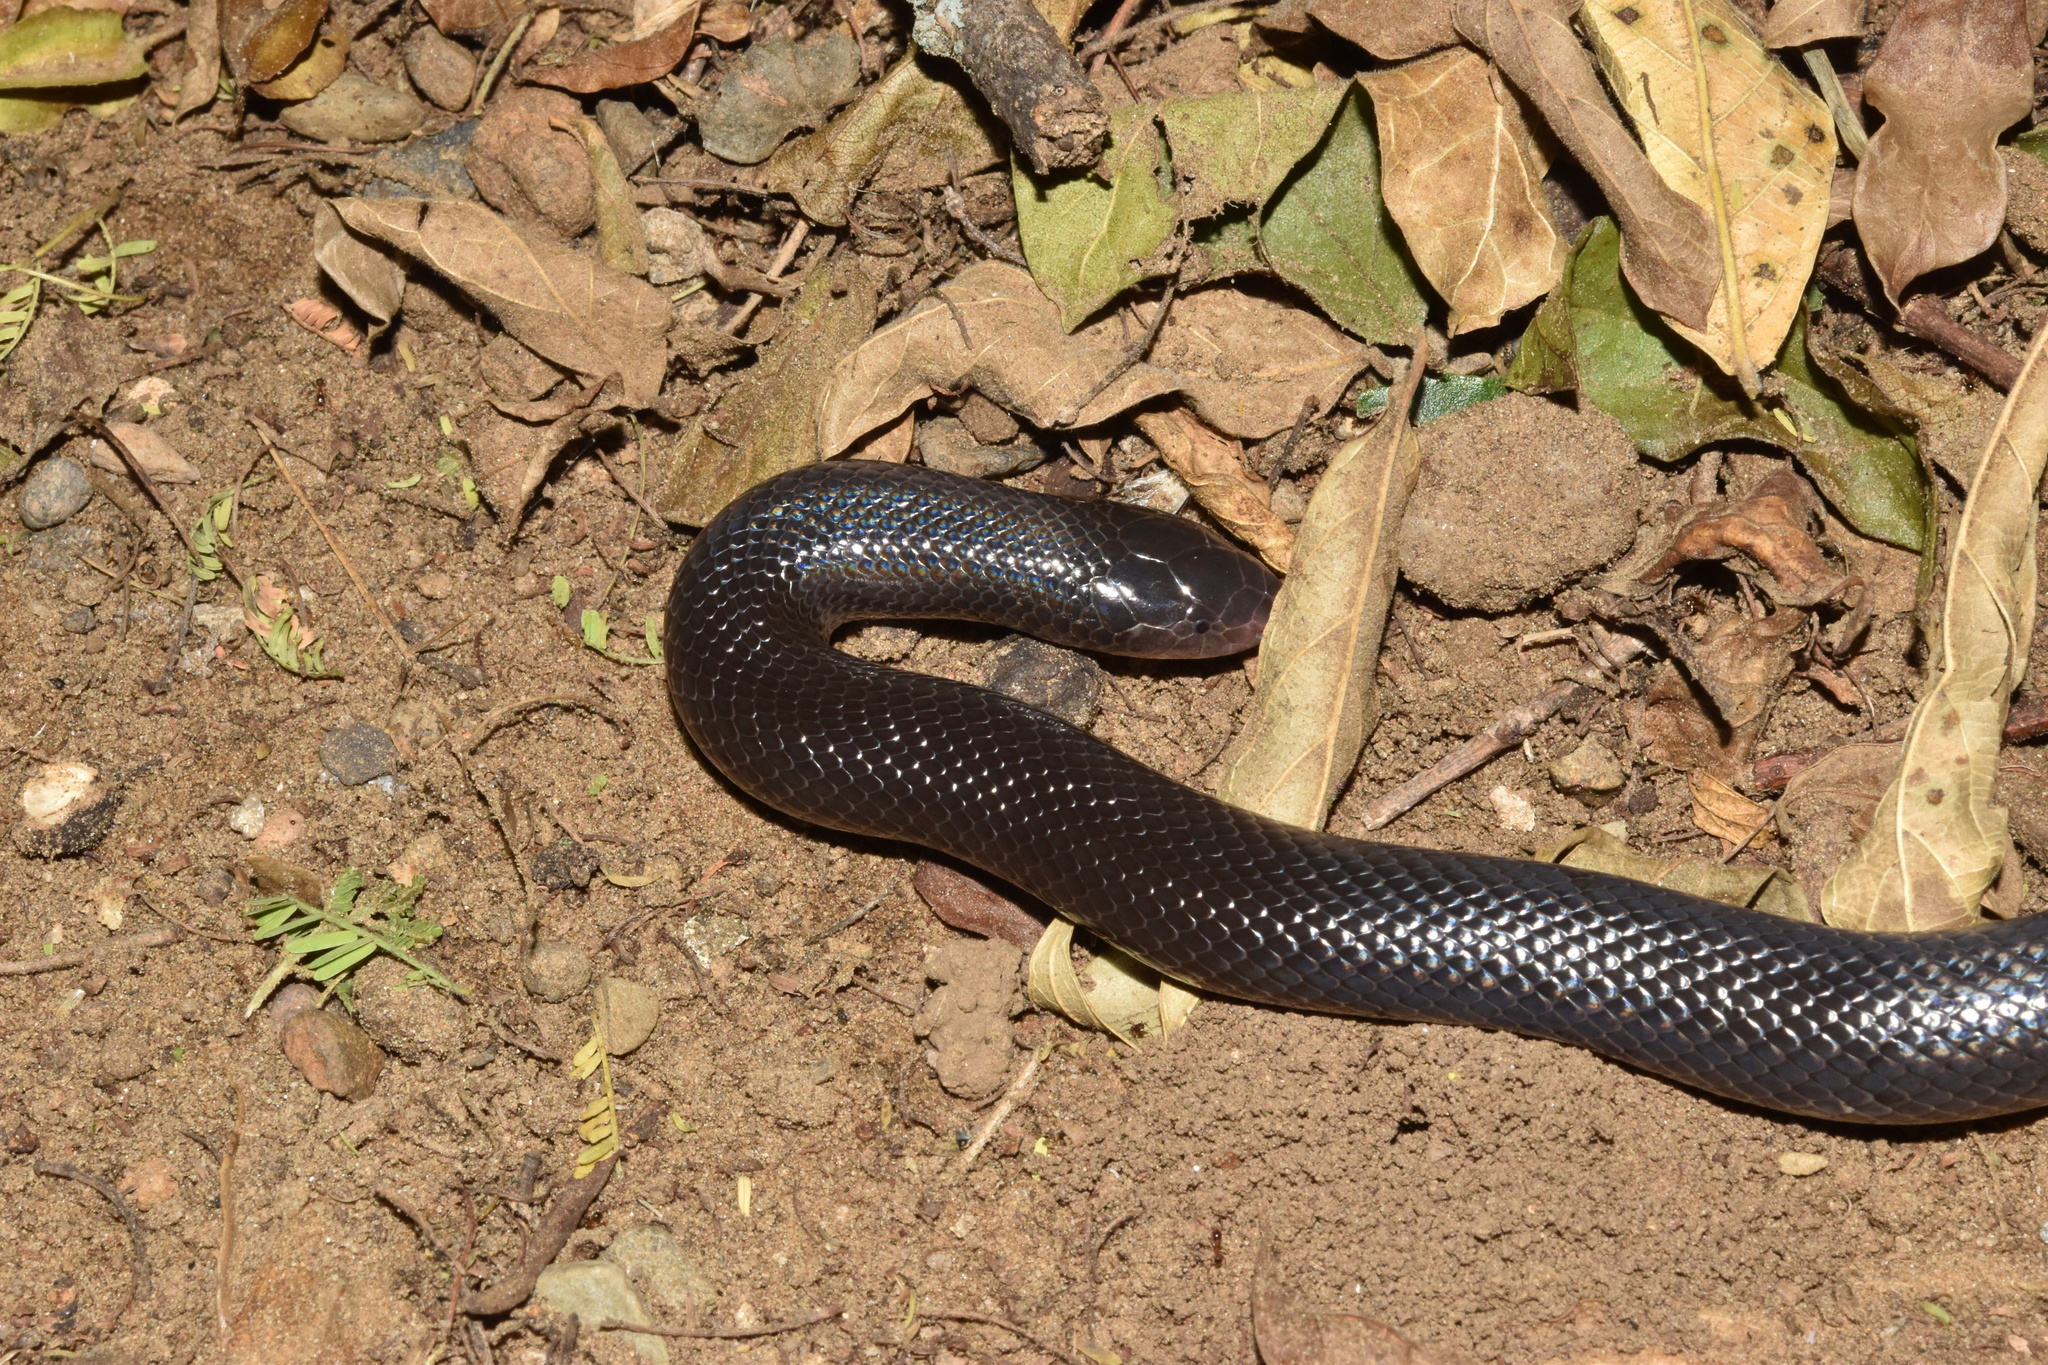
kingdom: Animalia
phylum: Chordata
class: Squamata
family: Atractaspididae
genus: Atractaspis
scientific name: Atractaspis bibronii
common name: Bibron's burrowing asp
